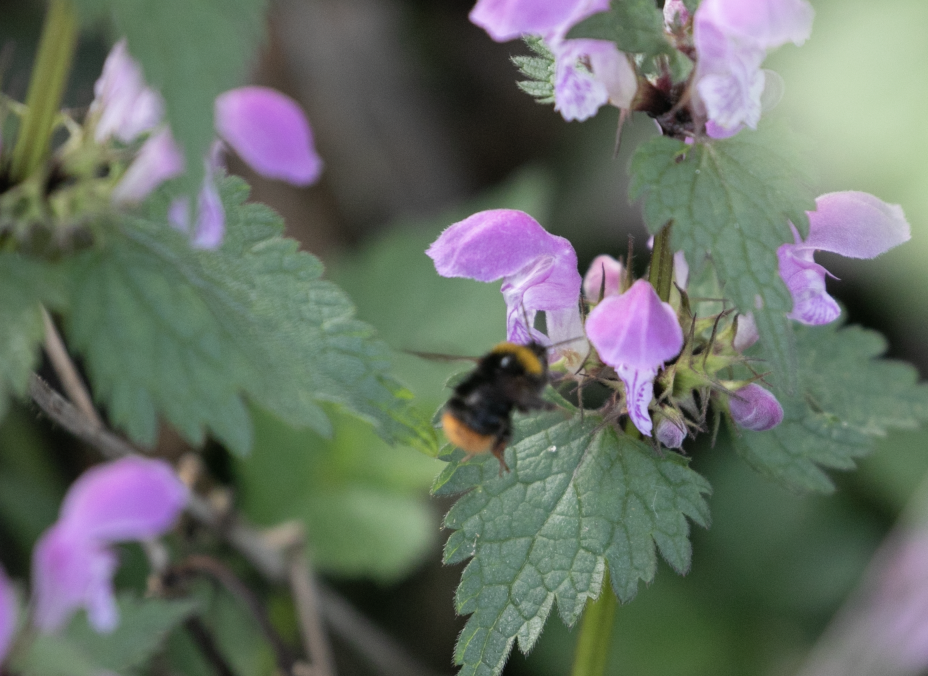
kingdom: Animalia
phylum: Arthropoda
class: Insecta
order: Hymenoptera
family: Apidae
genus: Bombus
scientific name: Bombus pratorum
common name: Early humble-bee
